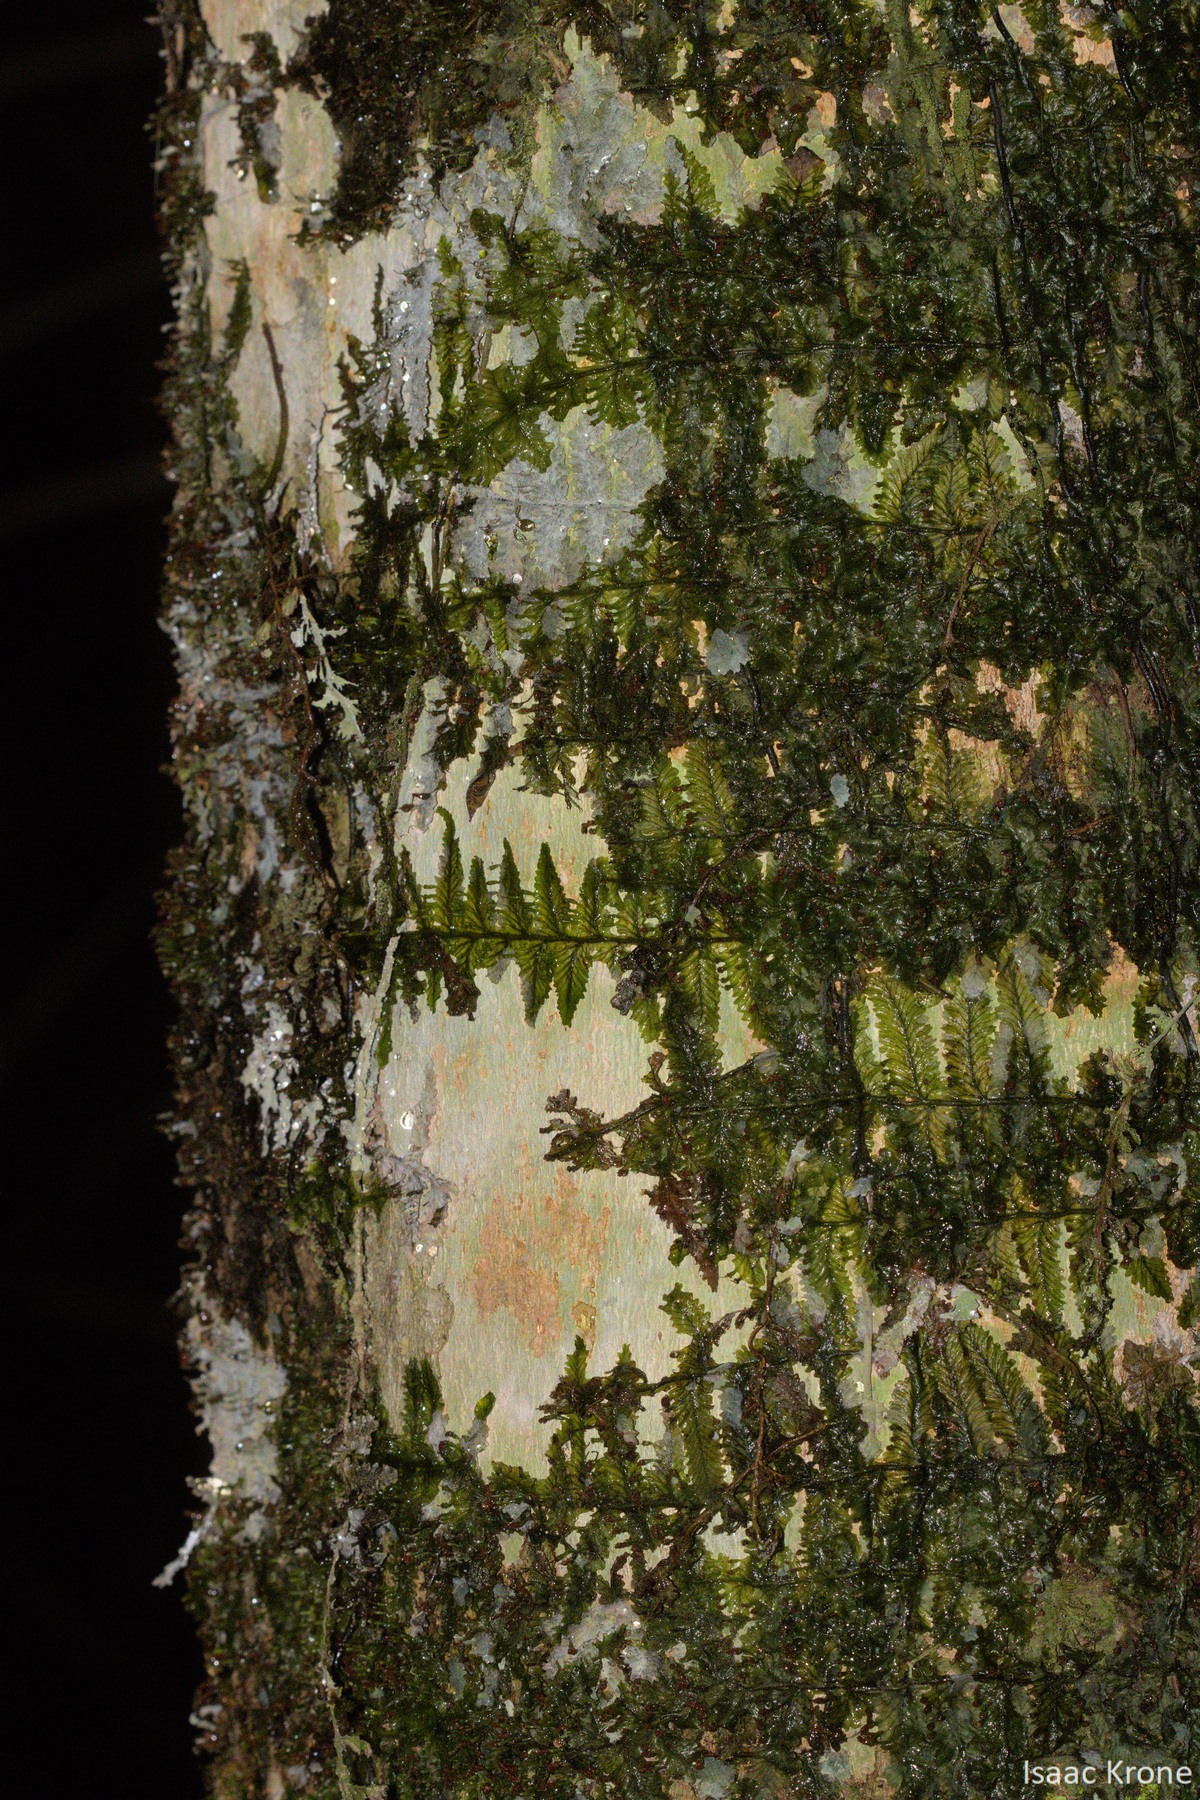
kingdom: Plantae
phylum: Tracheophyta
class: Polypodiopsida
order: Hymenophyllales
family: Hymenophyllaceae
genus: Trichomanes
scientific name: Trichomanes ankersii
